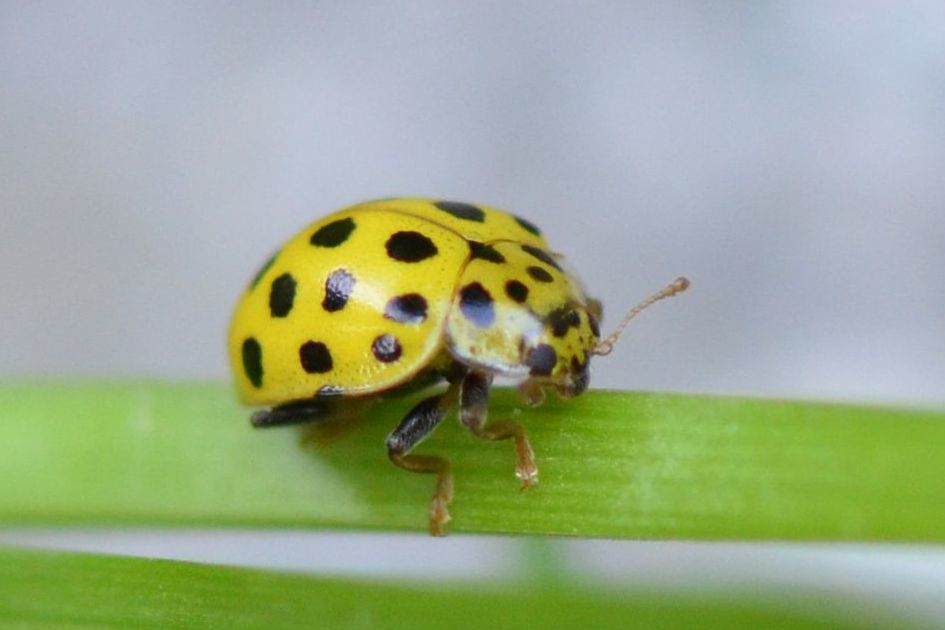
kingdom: Animalia
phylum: Arthropoda
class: Insecta
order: Coleoptera
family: Coccinellidae
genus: Psyllobora
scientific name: Psyllobora vigintiduopunctata
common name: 22-spot ladybird
